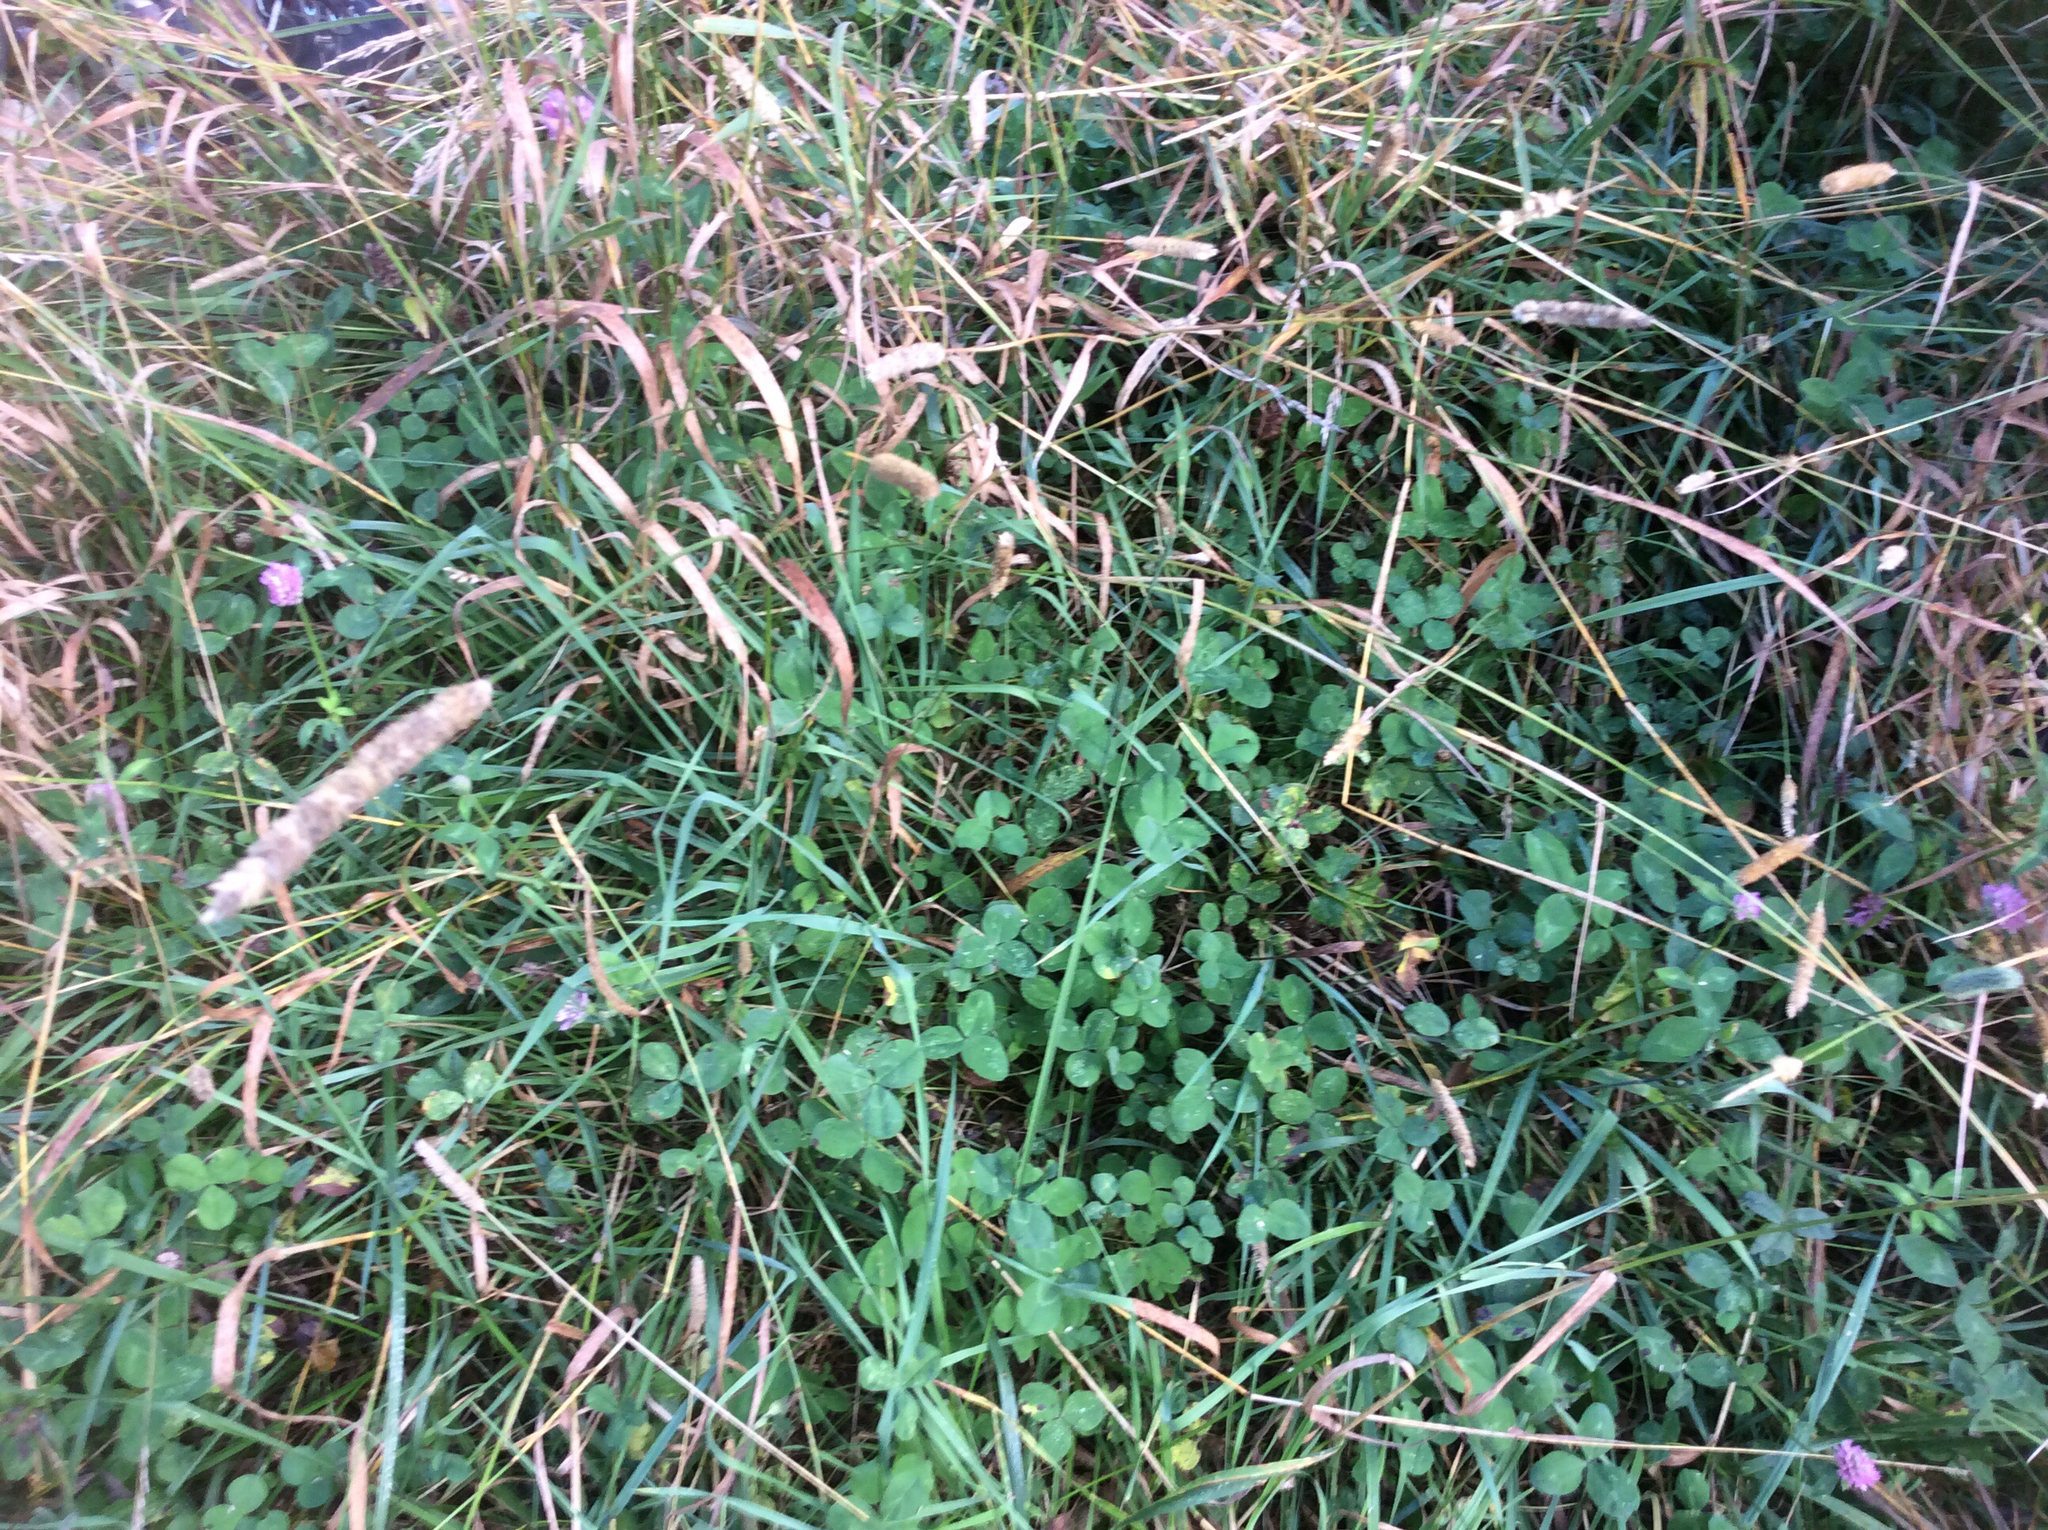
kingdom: Plantae
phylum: Tracheophyta
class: Magnoliopsida
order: Fabales
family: Fabaceae
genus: Trifolium
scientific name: Trifolium pratense
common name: Red clover
